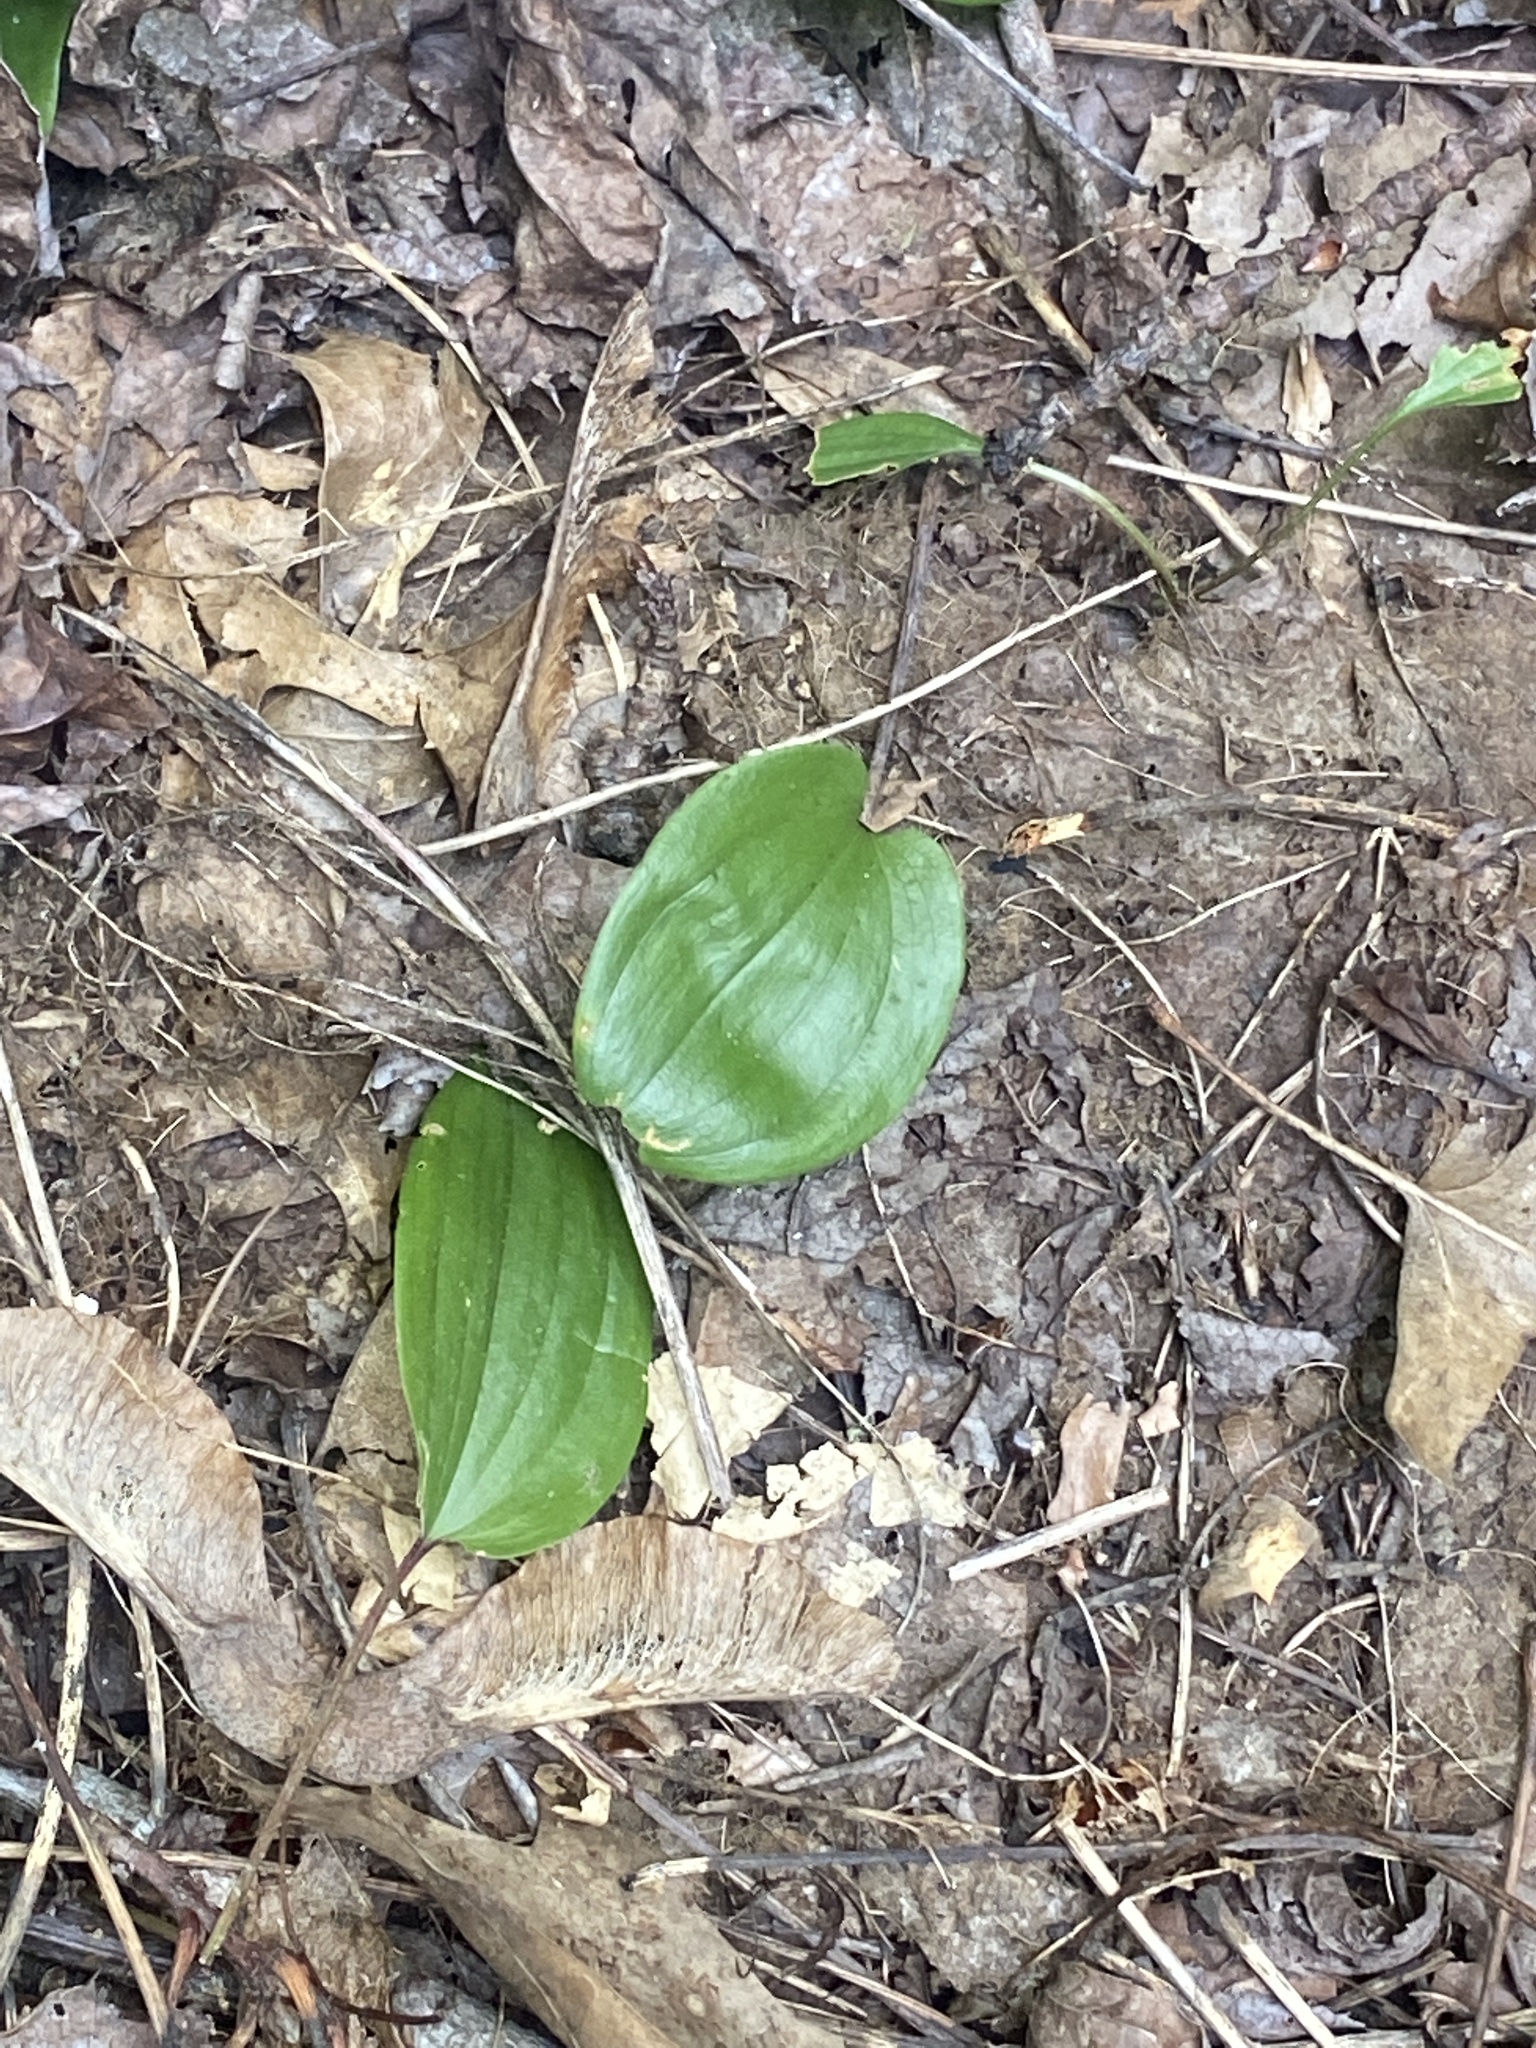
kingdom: Plantae
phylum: Tracheophyta
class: Liliopsida
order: Asparagales
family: Asparagaceae
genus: Maianthemum
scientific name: Maianthemum canadense
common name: False lily-of-the-valley
